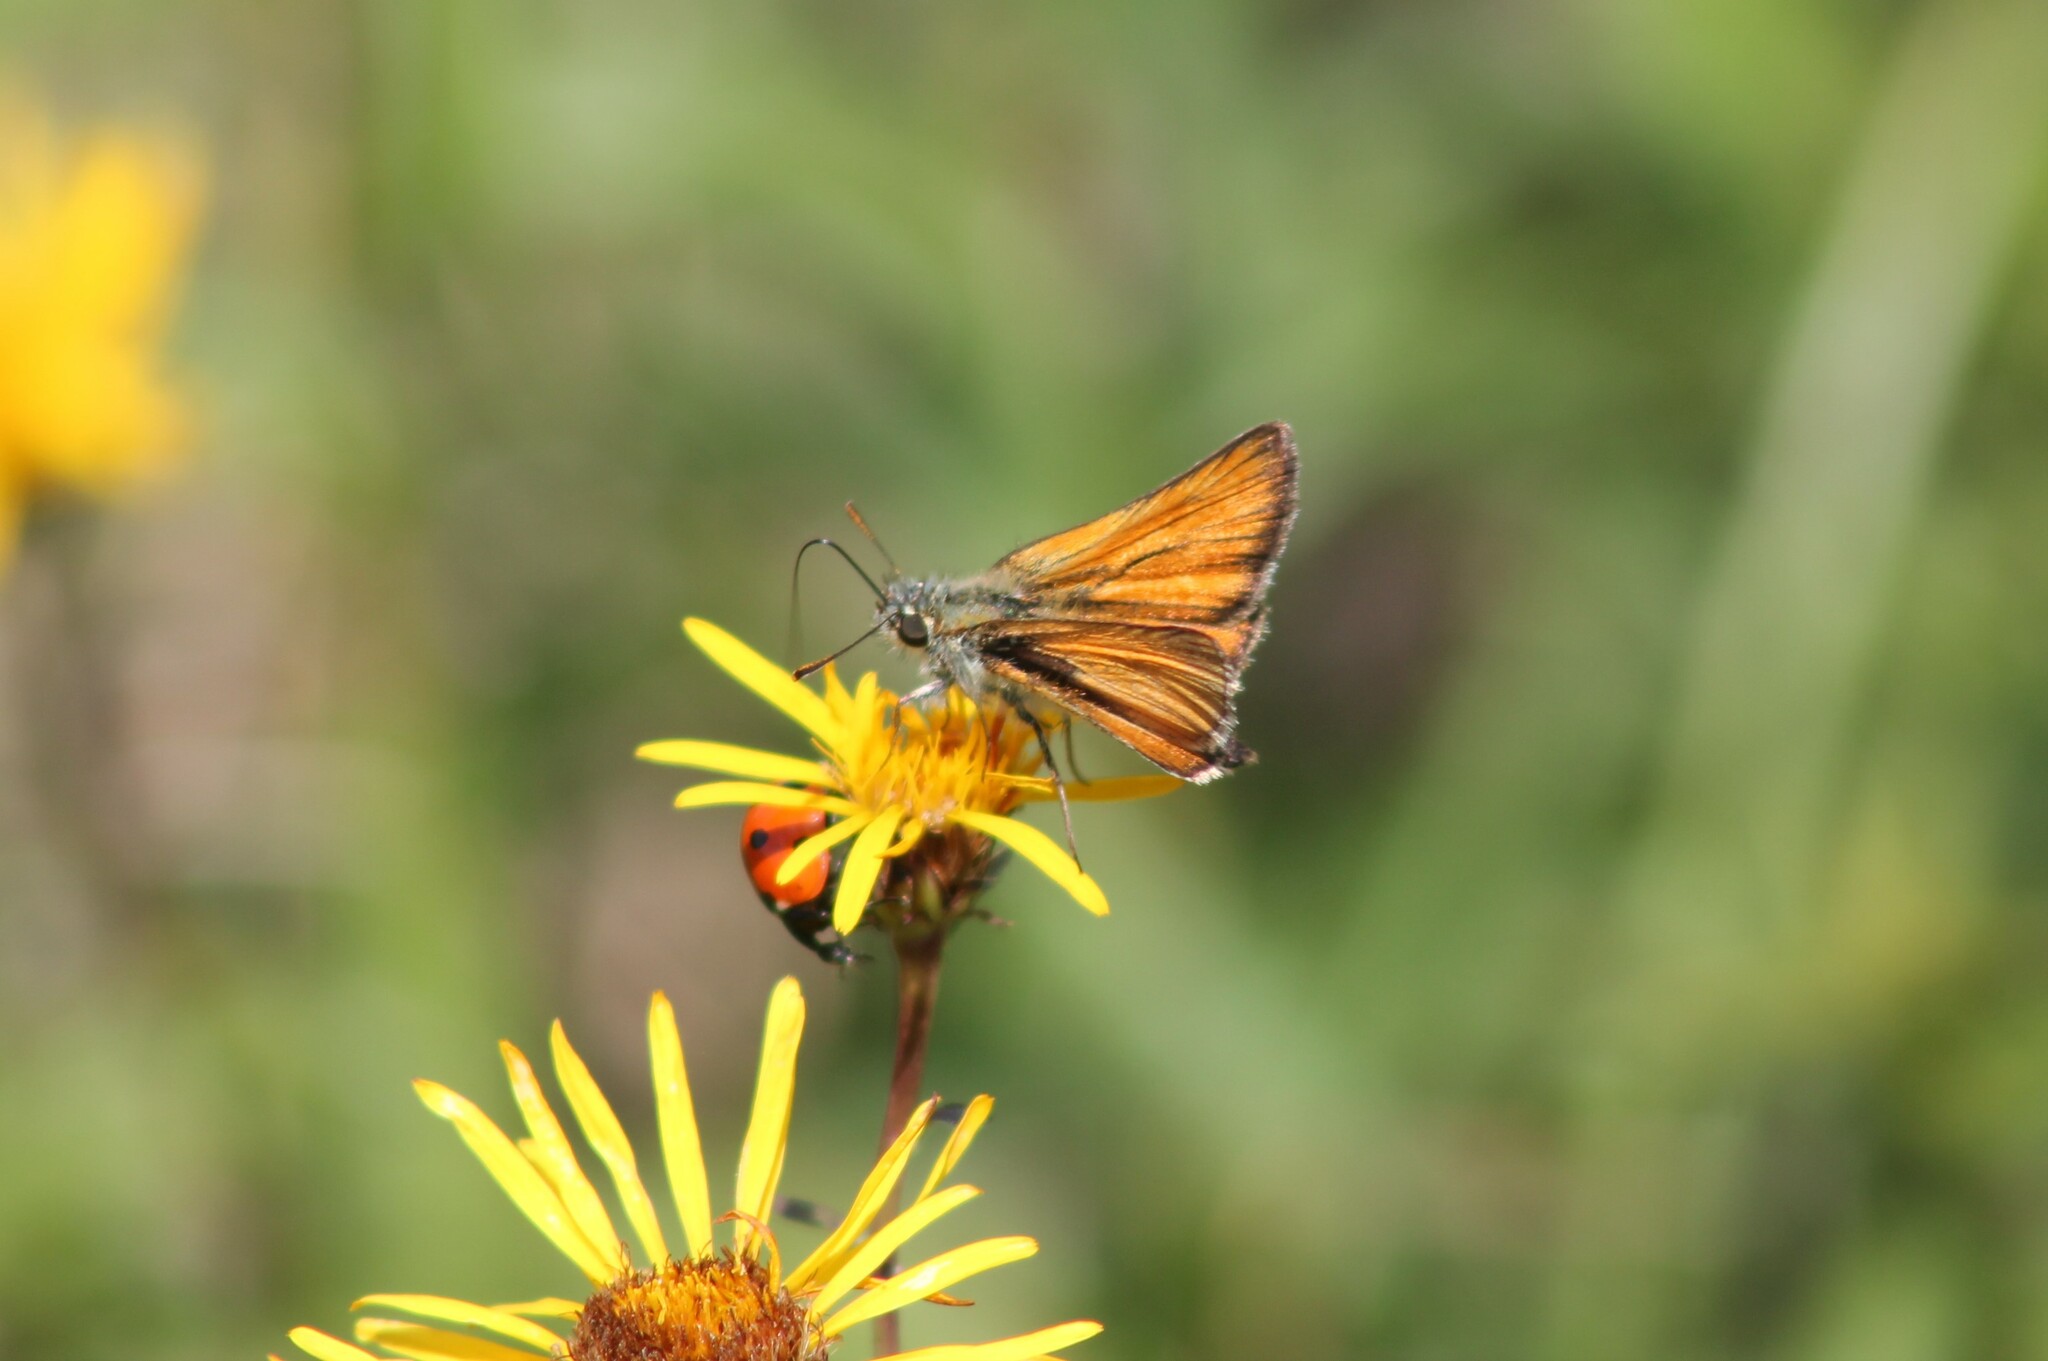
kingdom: Animalia
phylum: Arthropoda
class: Insecta
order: Lepidoptera
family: Hesperiidae
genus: Thymelicus
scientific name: Thymelicus sylvestris
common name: Small skipper
